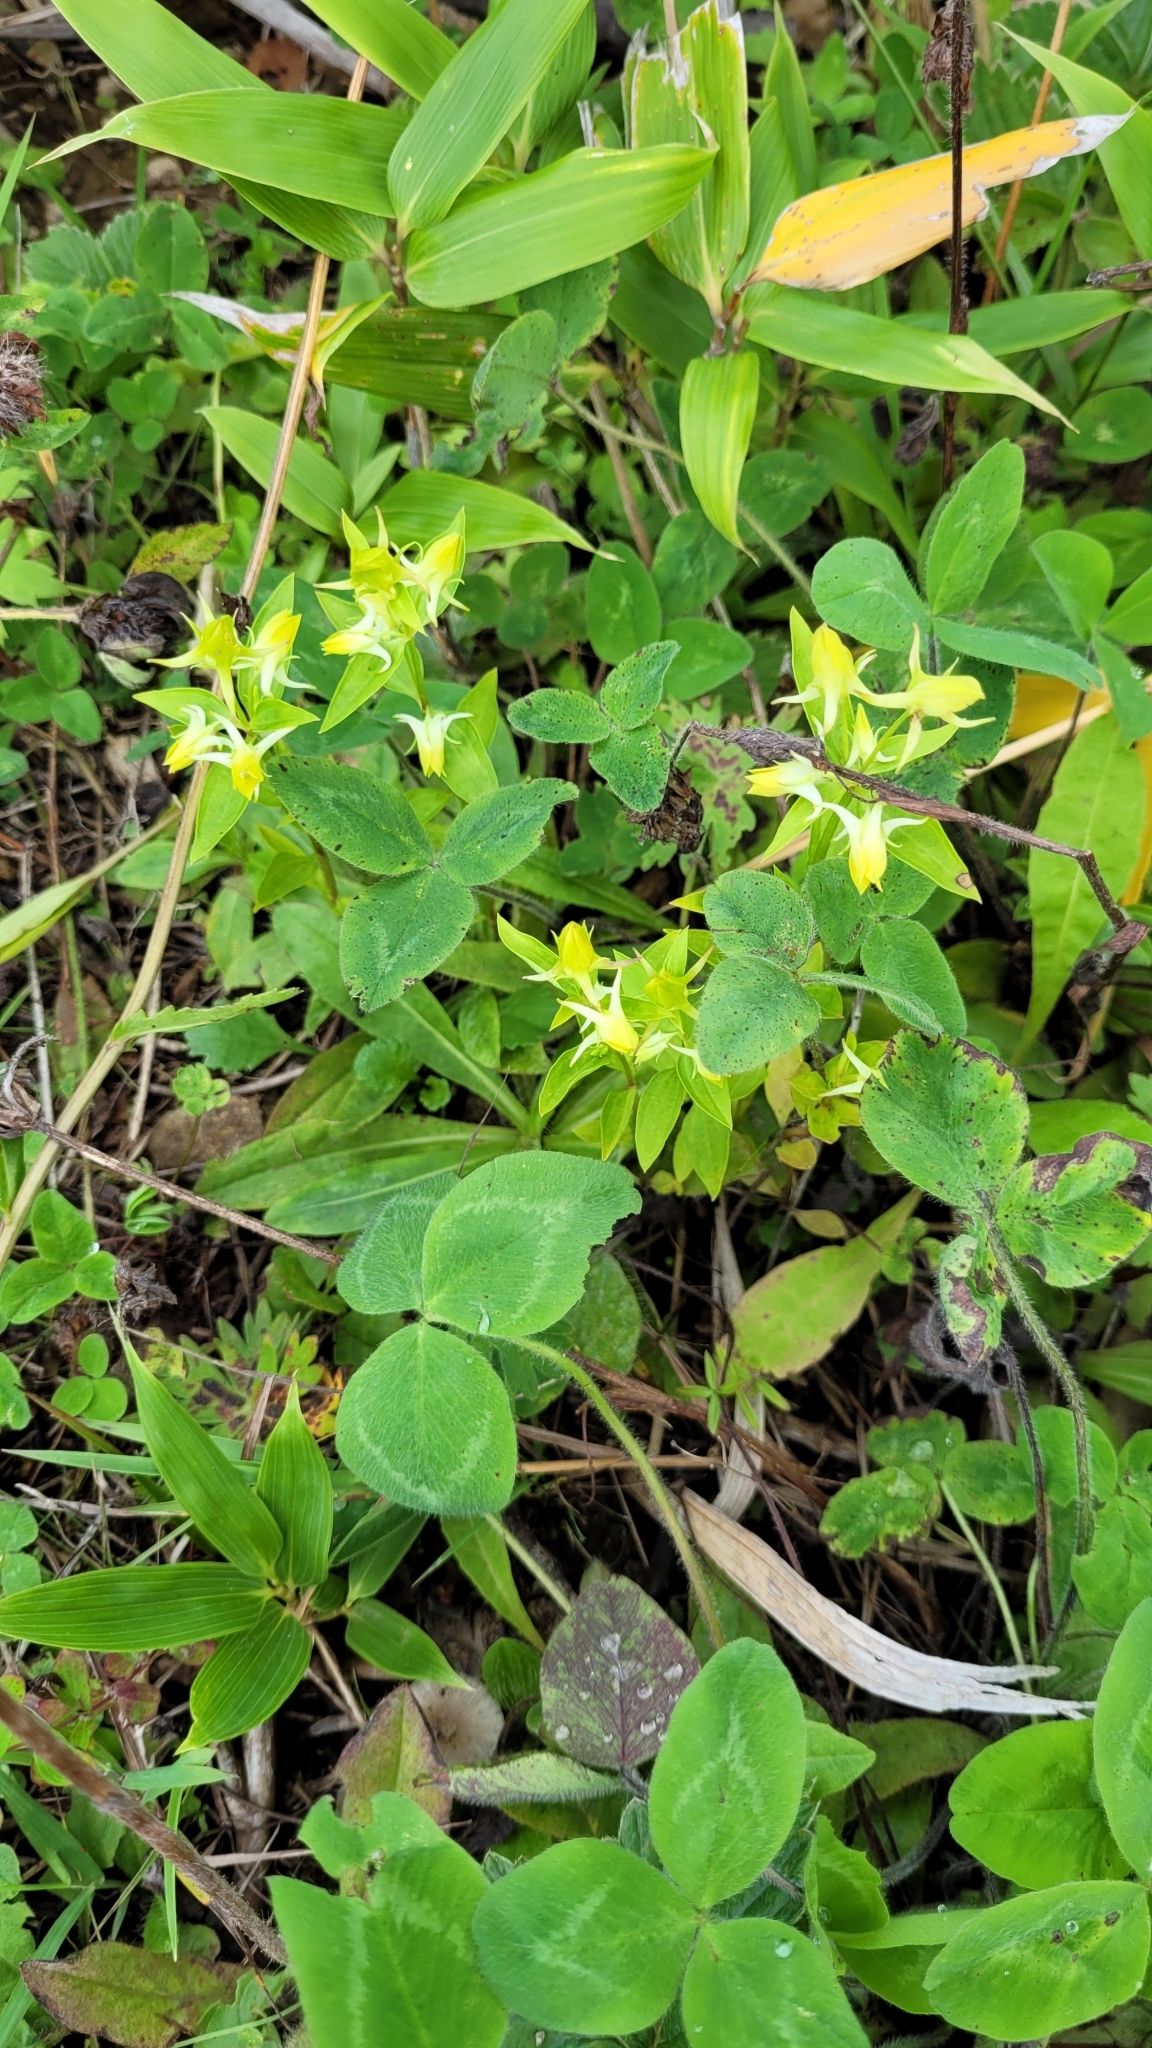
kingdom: Plantae
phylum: Tracheophyta
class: Magnoliopsida
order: Gentianales
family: Gentianaceae
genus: Halenia
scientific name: Halenia corniculata
